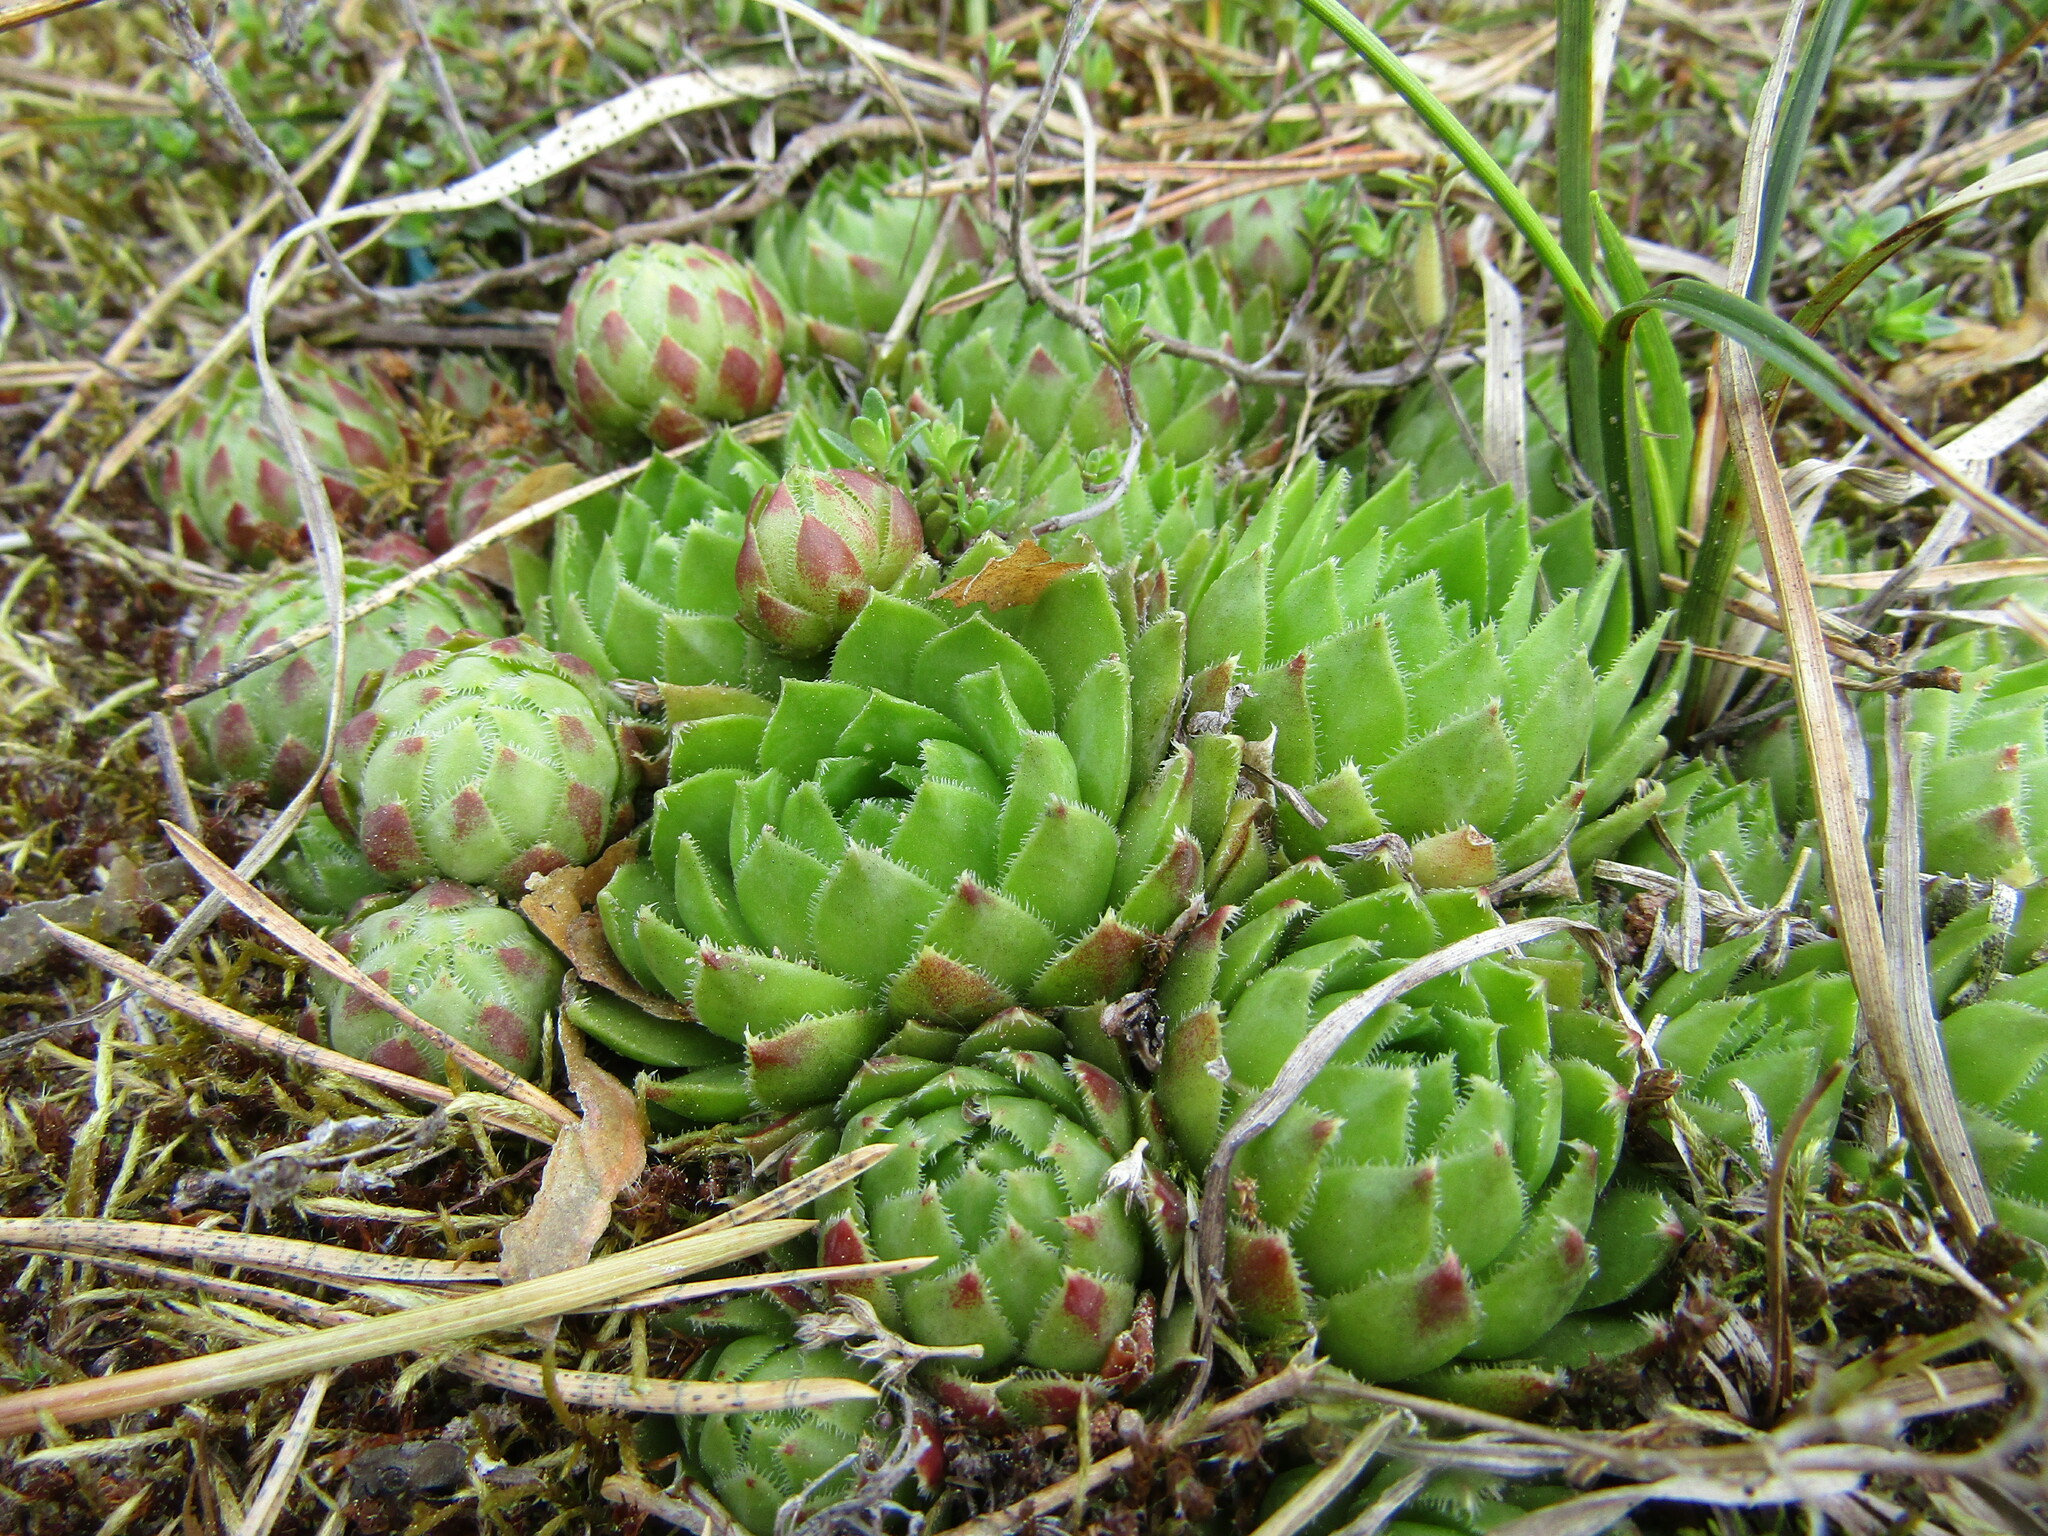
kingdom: Plantae
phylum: Tracheophyta
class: Magnoliopsida
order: Saxifragales
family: Crassulaceae
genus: Sempervivum
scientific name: Sempervivum globiferum
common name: Rolling hen-and-chicks
